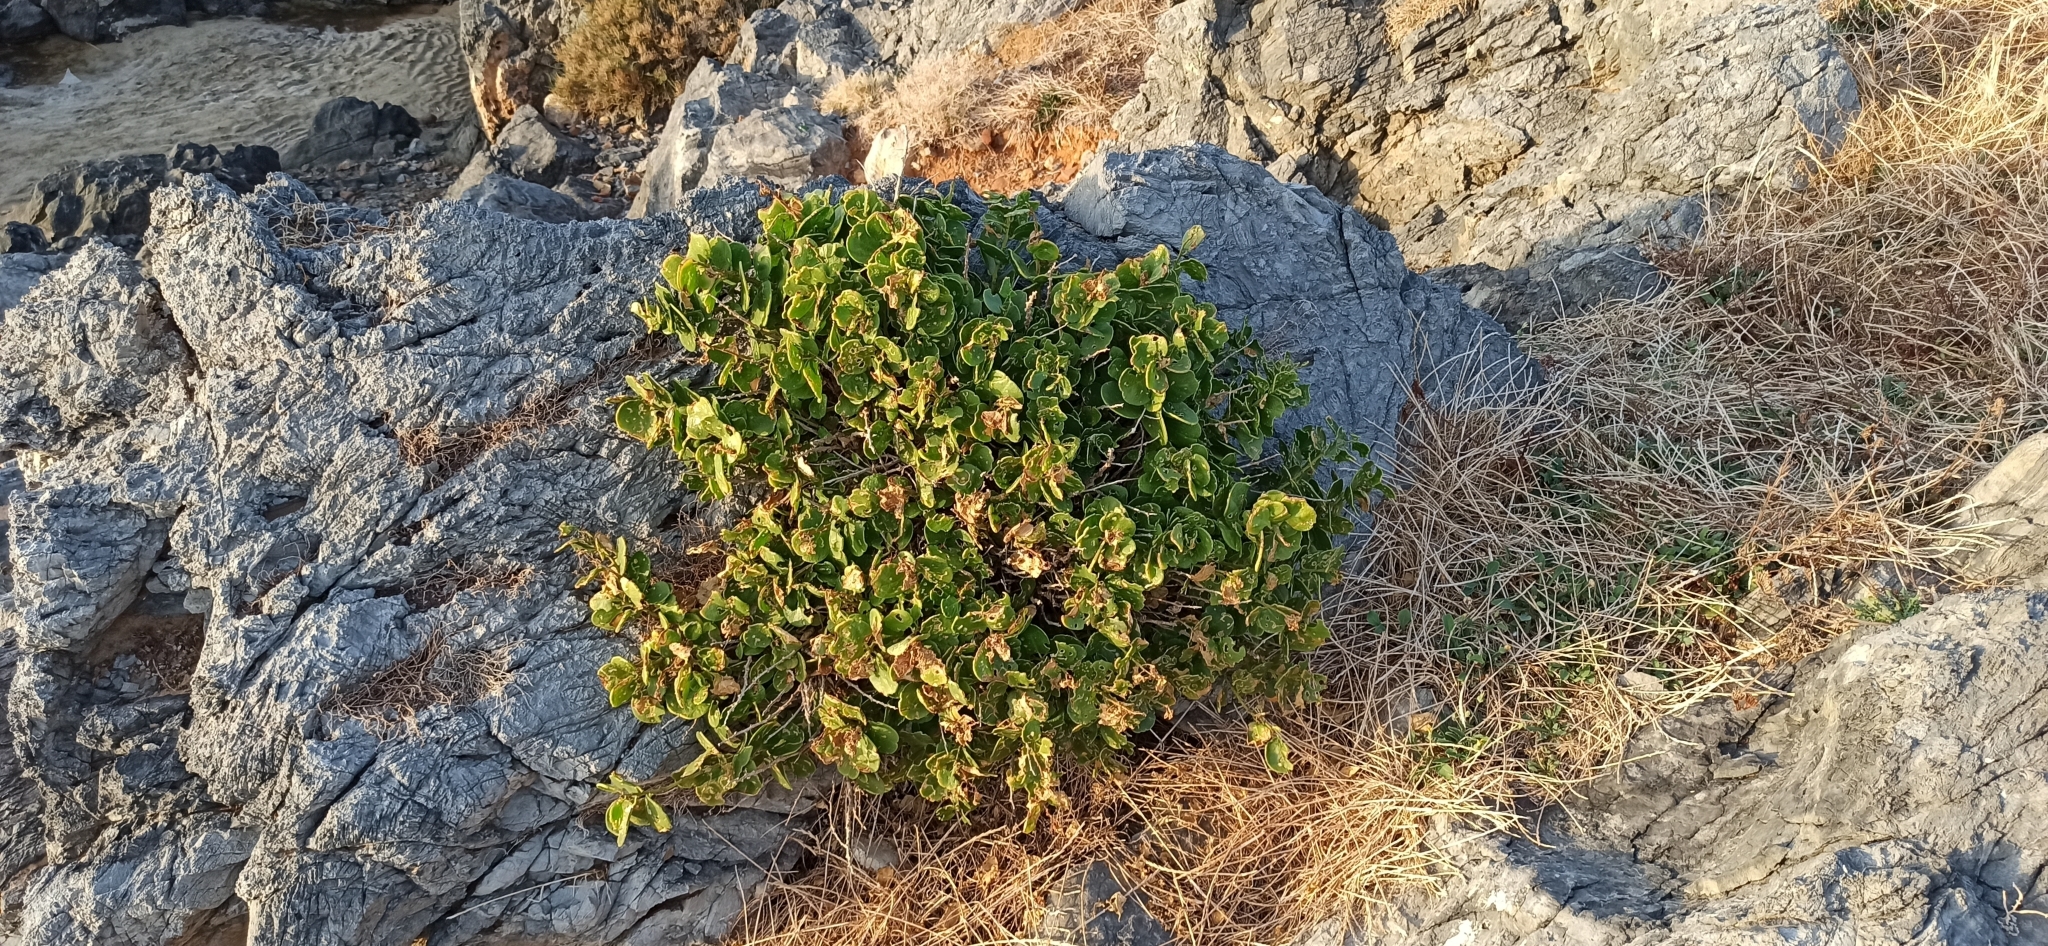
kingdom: Plantae
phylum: Tracheophyta
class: Magnoliopsida
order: Brassicales
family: Capparaceae
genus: Capparis
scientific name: Capparis orientalis
